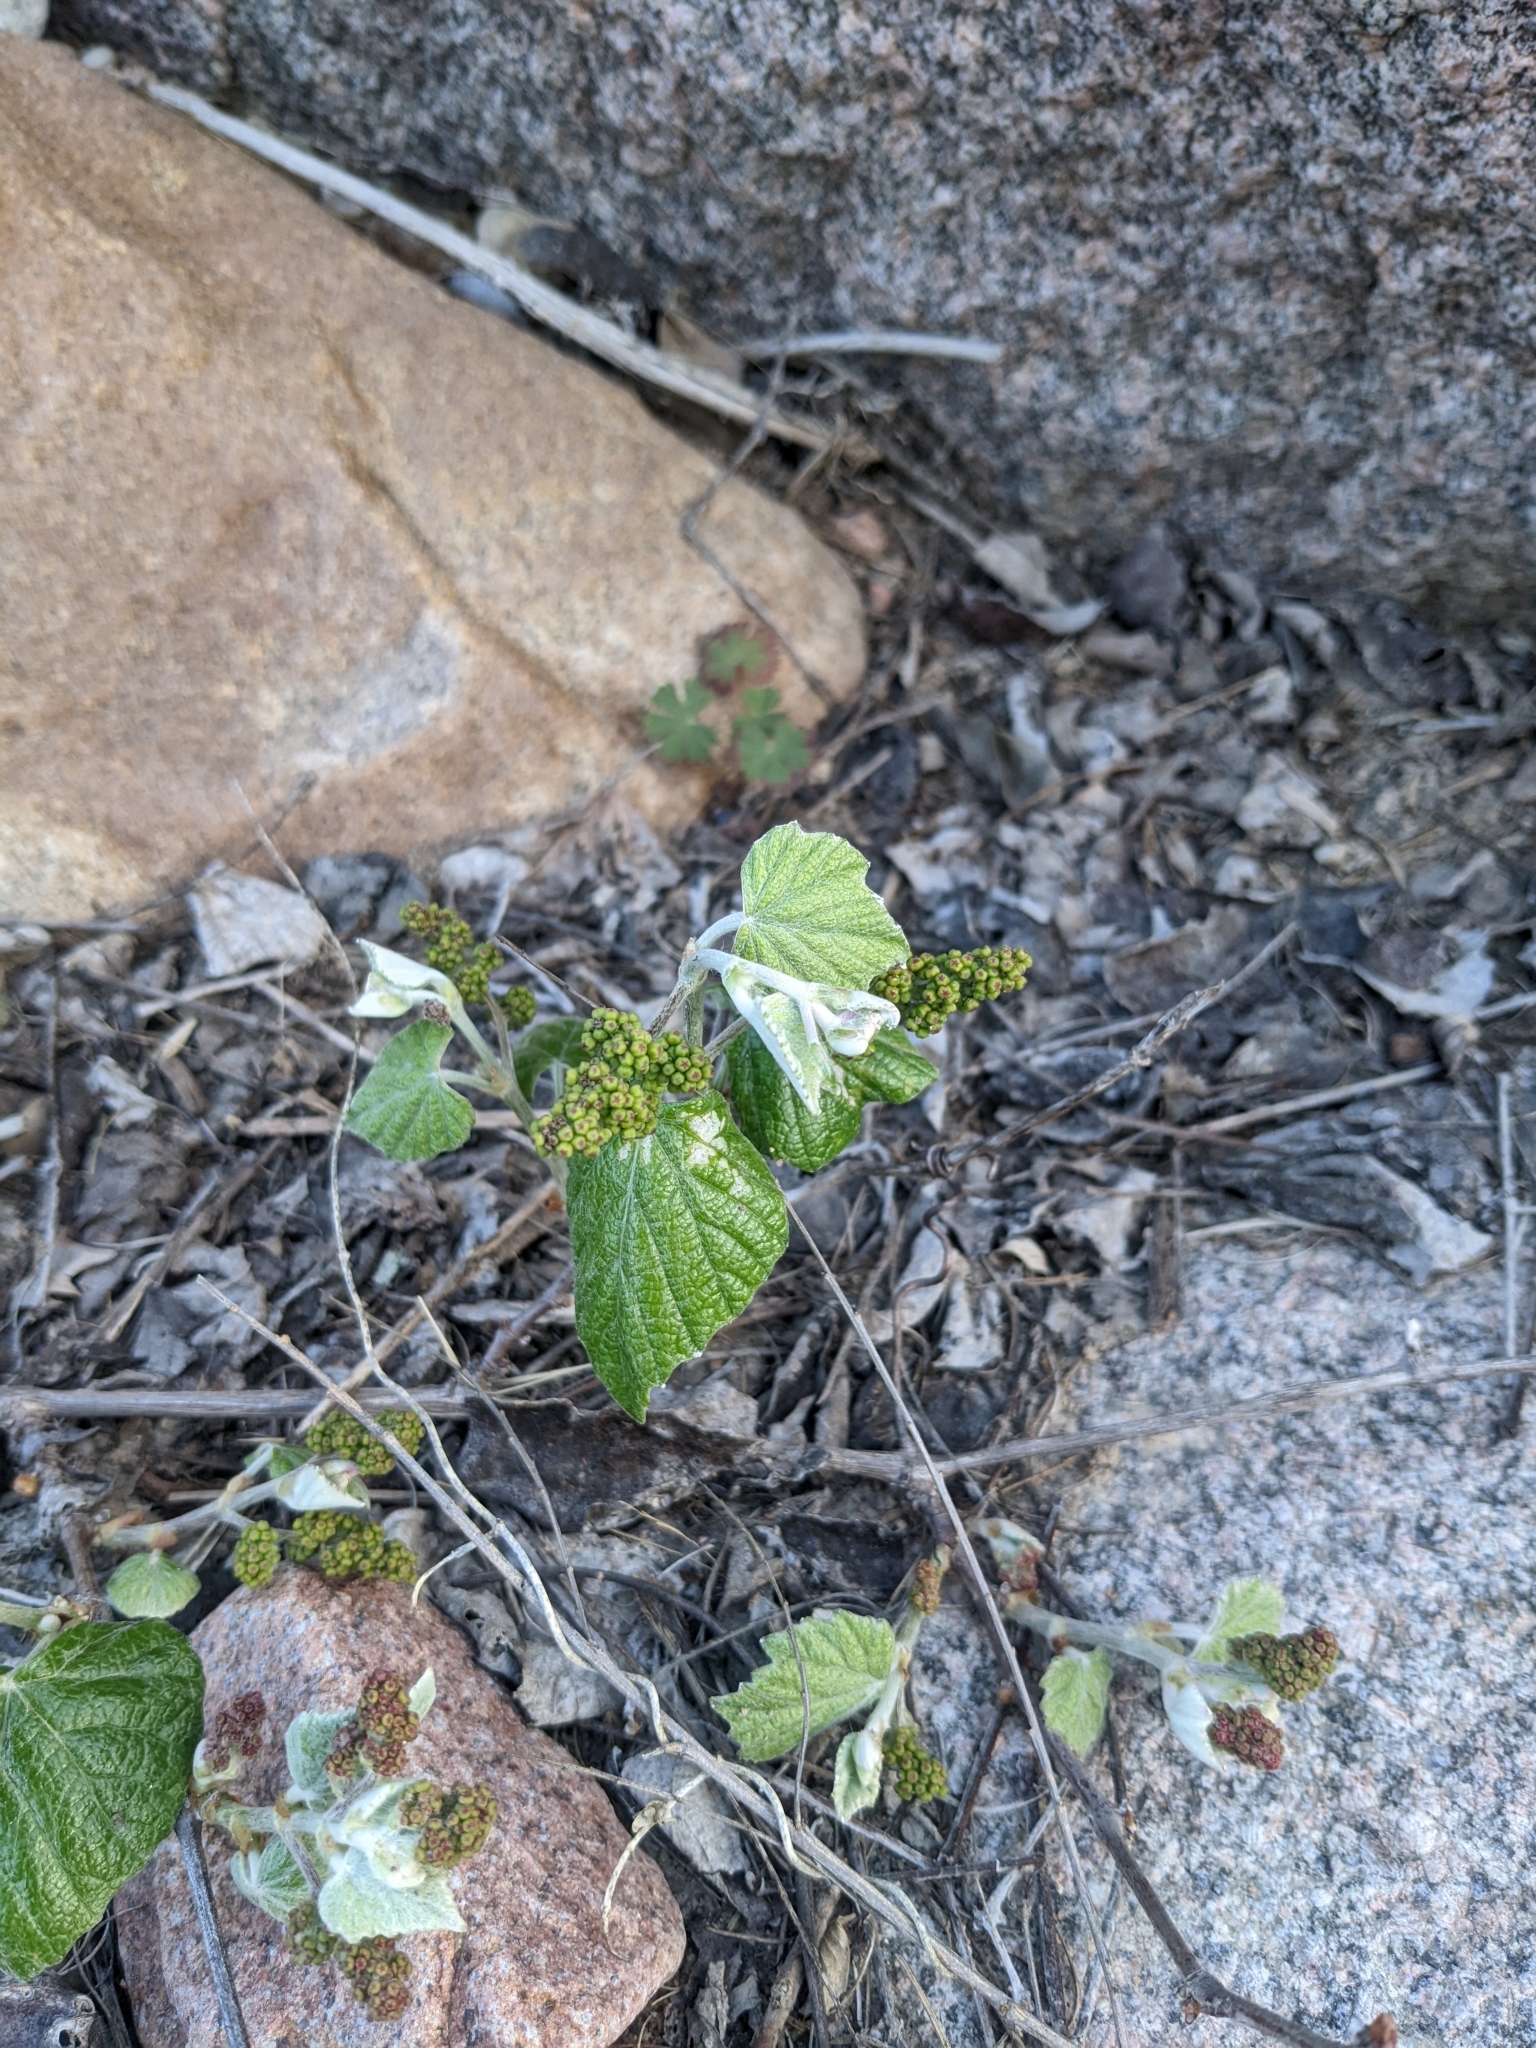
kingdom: Plantae
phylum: Tracheophyta
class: Magnoliopsida
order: Vitales
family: Vitaceae
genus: Vitis
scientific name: Vitis mustangensis
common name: Mustang grape
